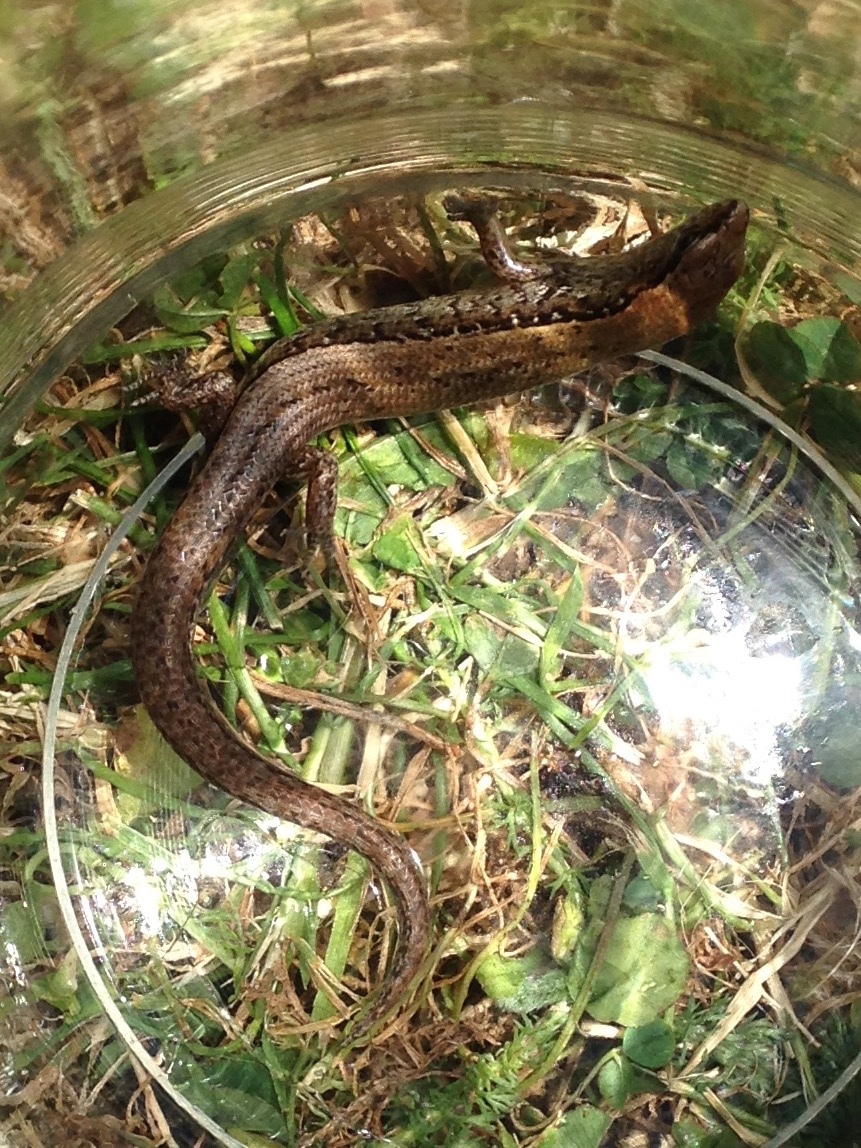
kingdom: Animalia
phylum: Chordata
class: Squamata
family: Scincidae
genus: Oligosoma
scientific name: Oligosoma aeneum
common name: Copper skink
